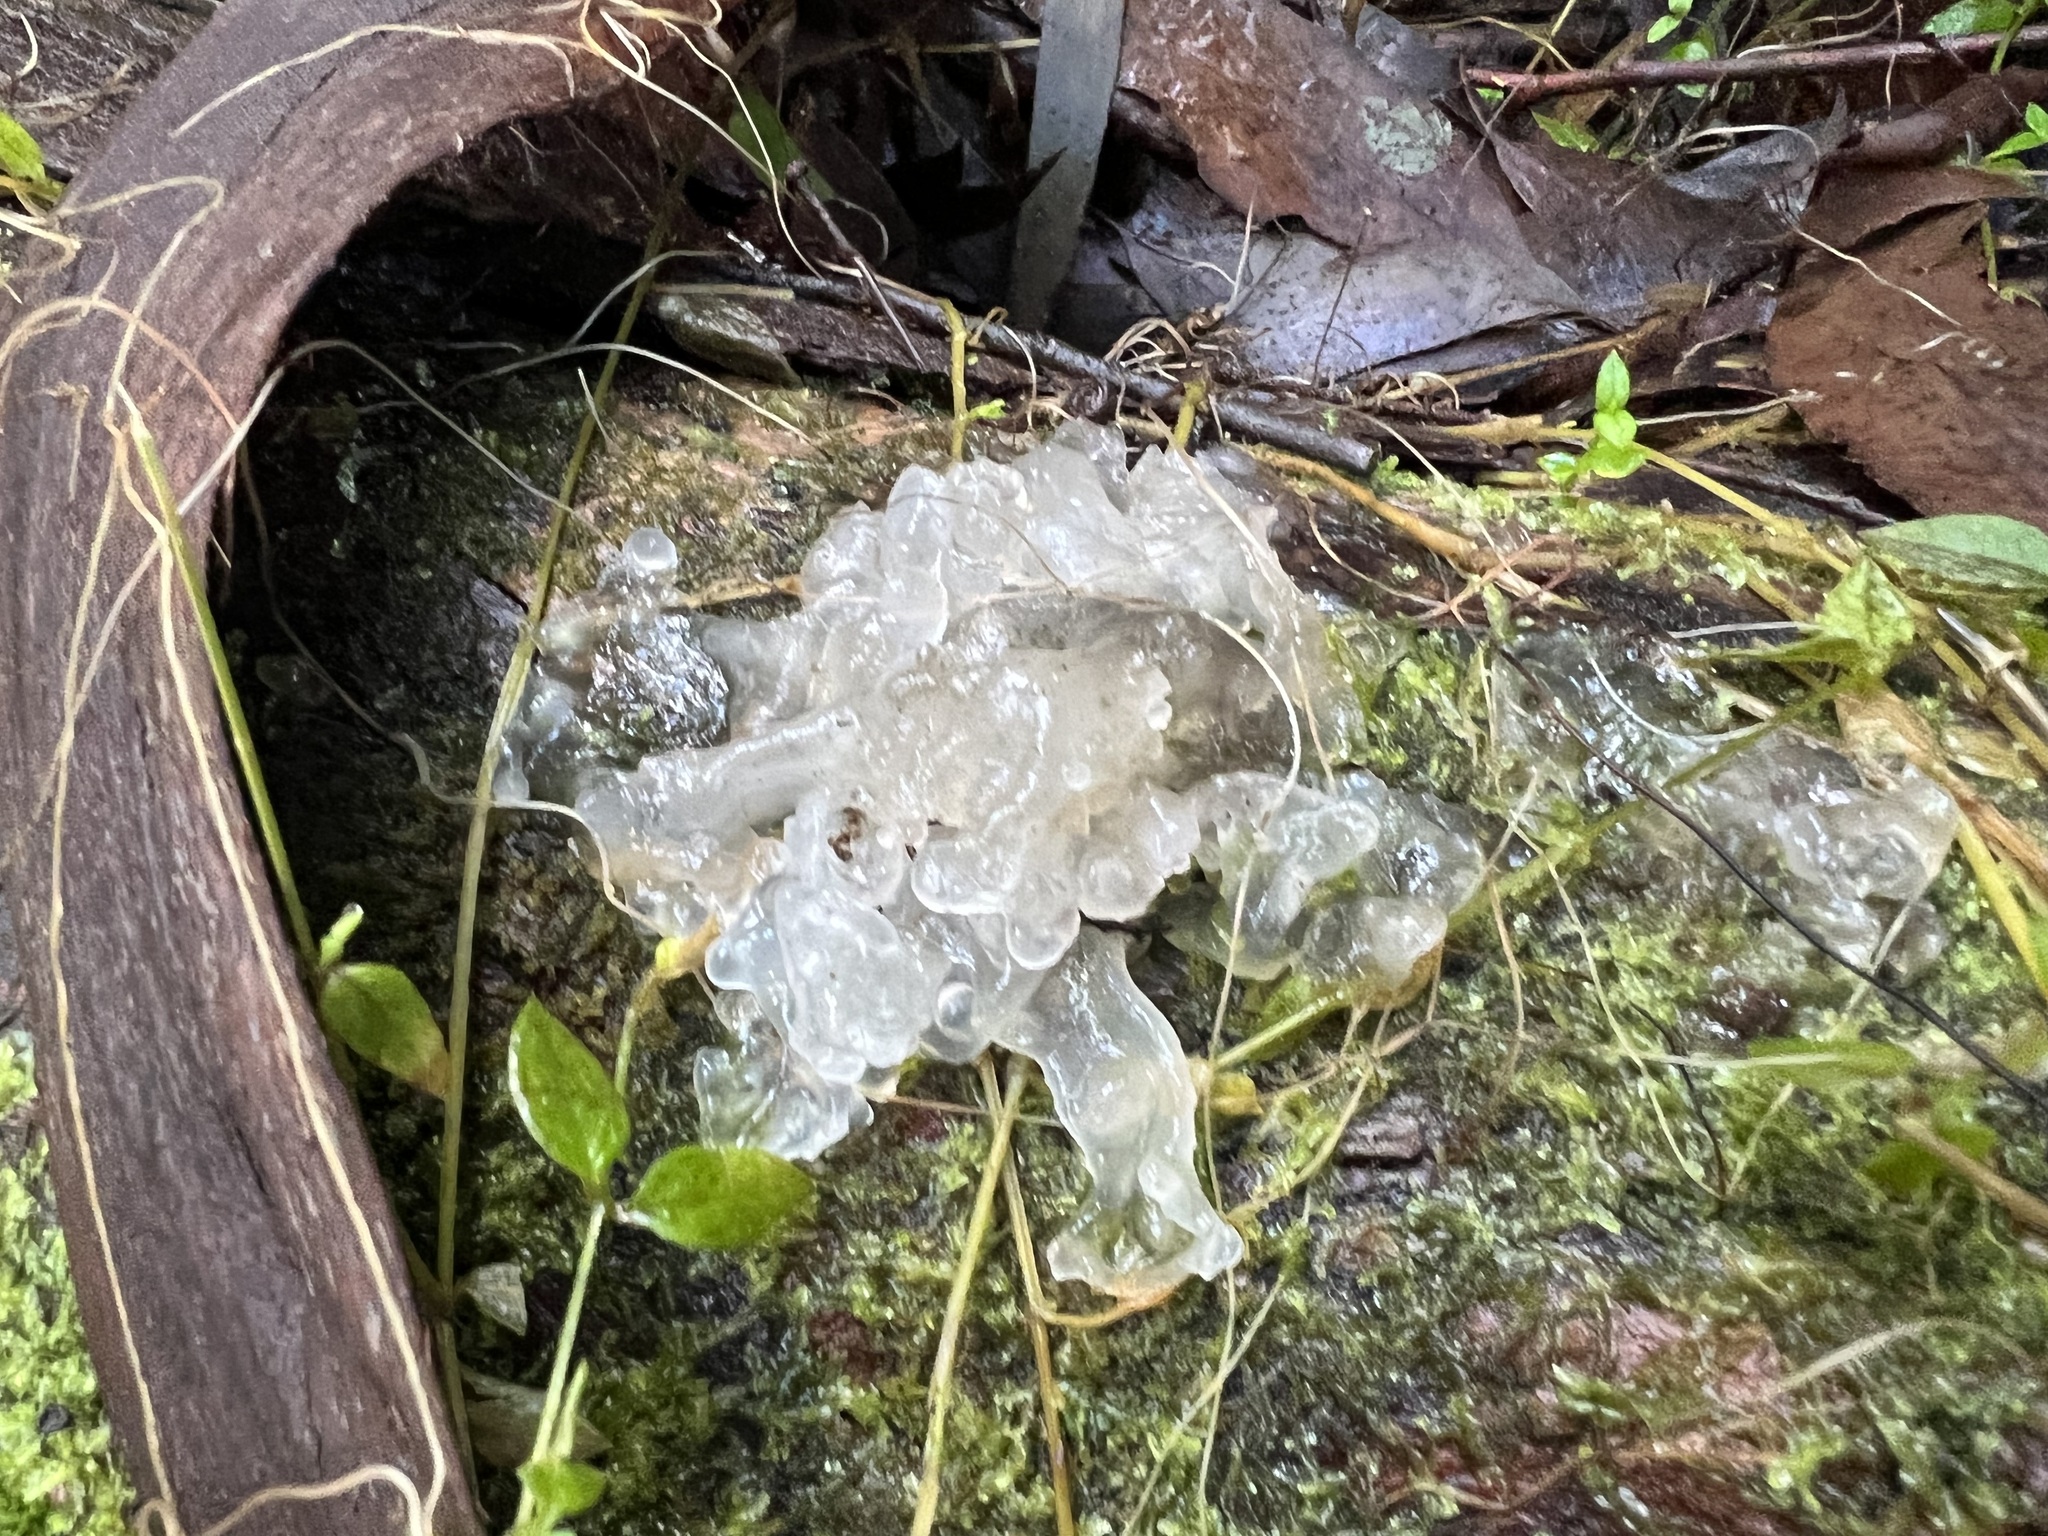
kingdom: Fungi
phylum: Basidiomycota
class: Tremellomycetes
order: Tremellales
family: Tremellaceae
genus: Tremella
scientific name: Tremella fuciformis
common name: Snow fungus
